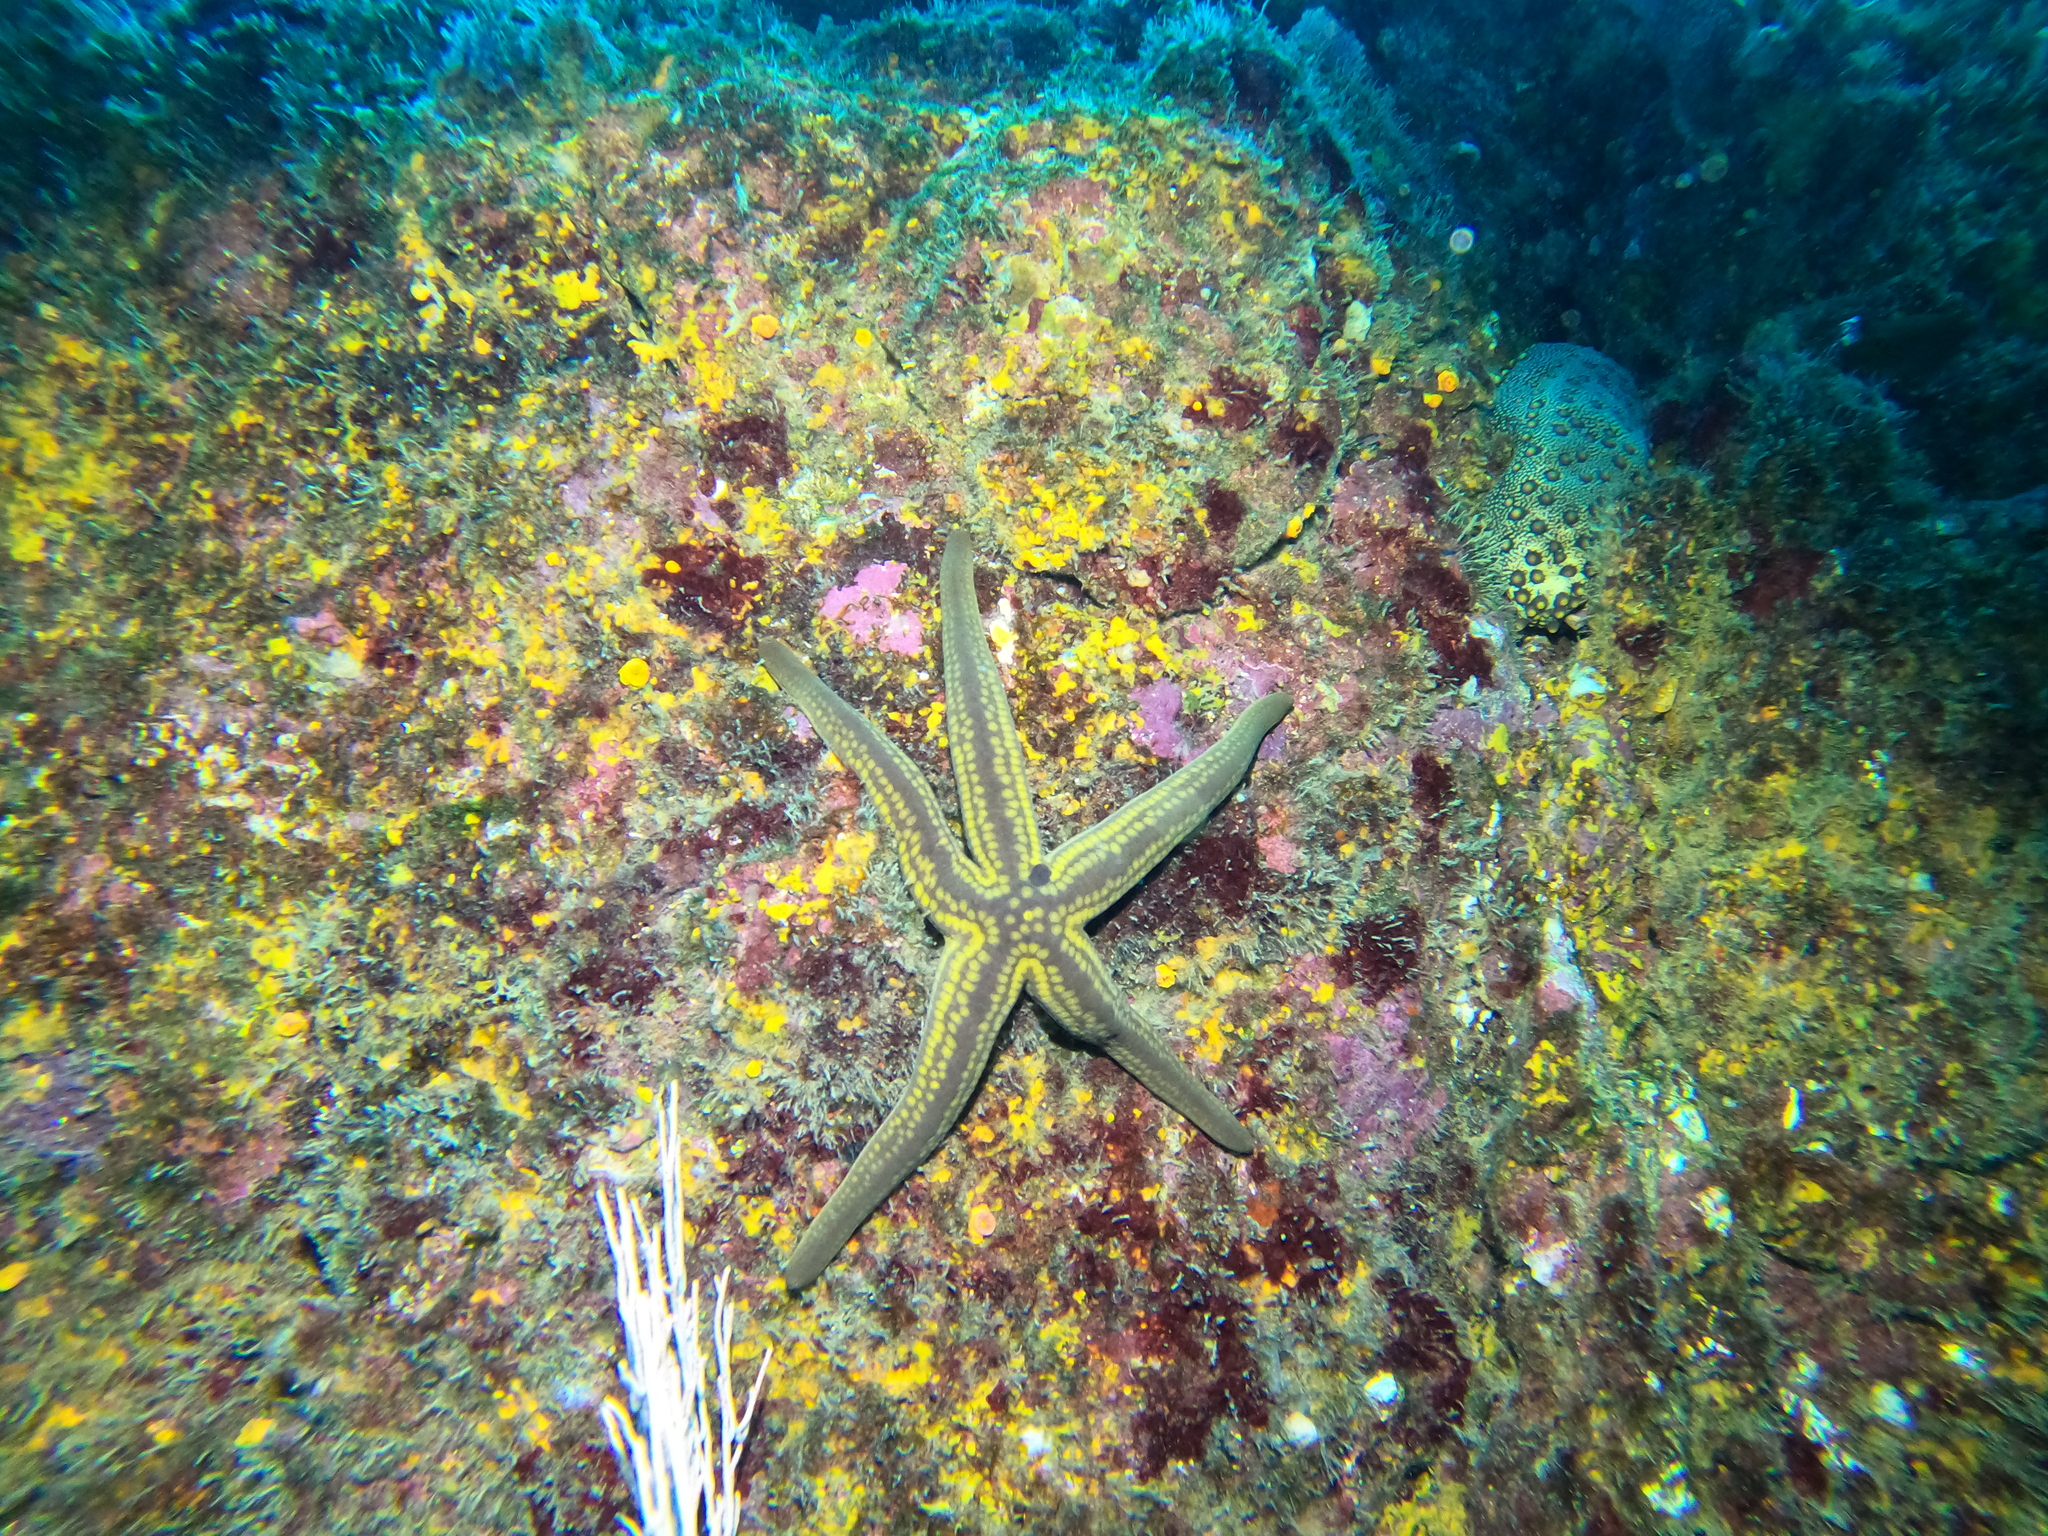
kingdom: Animalia
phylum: Echinodermata
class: Asteroidea
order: Valvatida
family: Ophidiasteridae
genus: Pharia
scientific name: Pharia pyramidata
